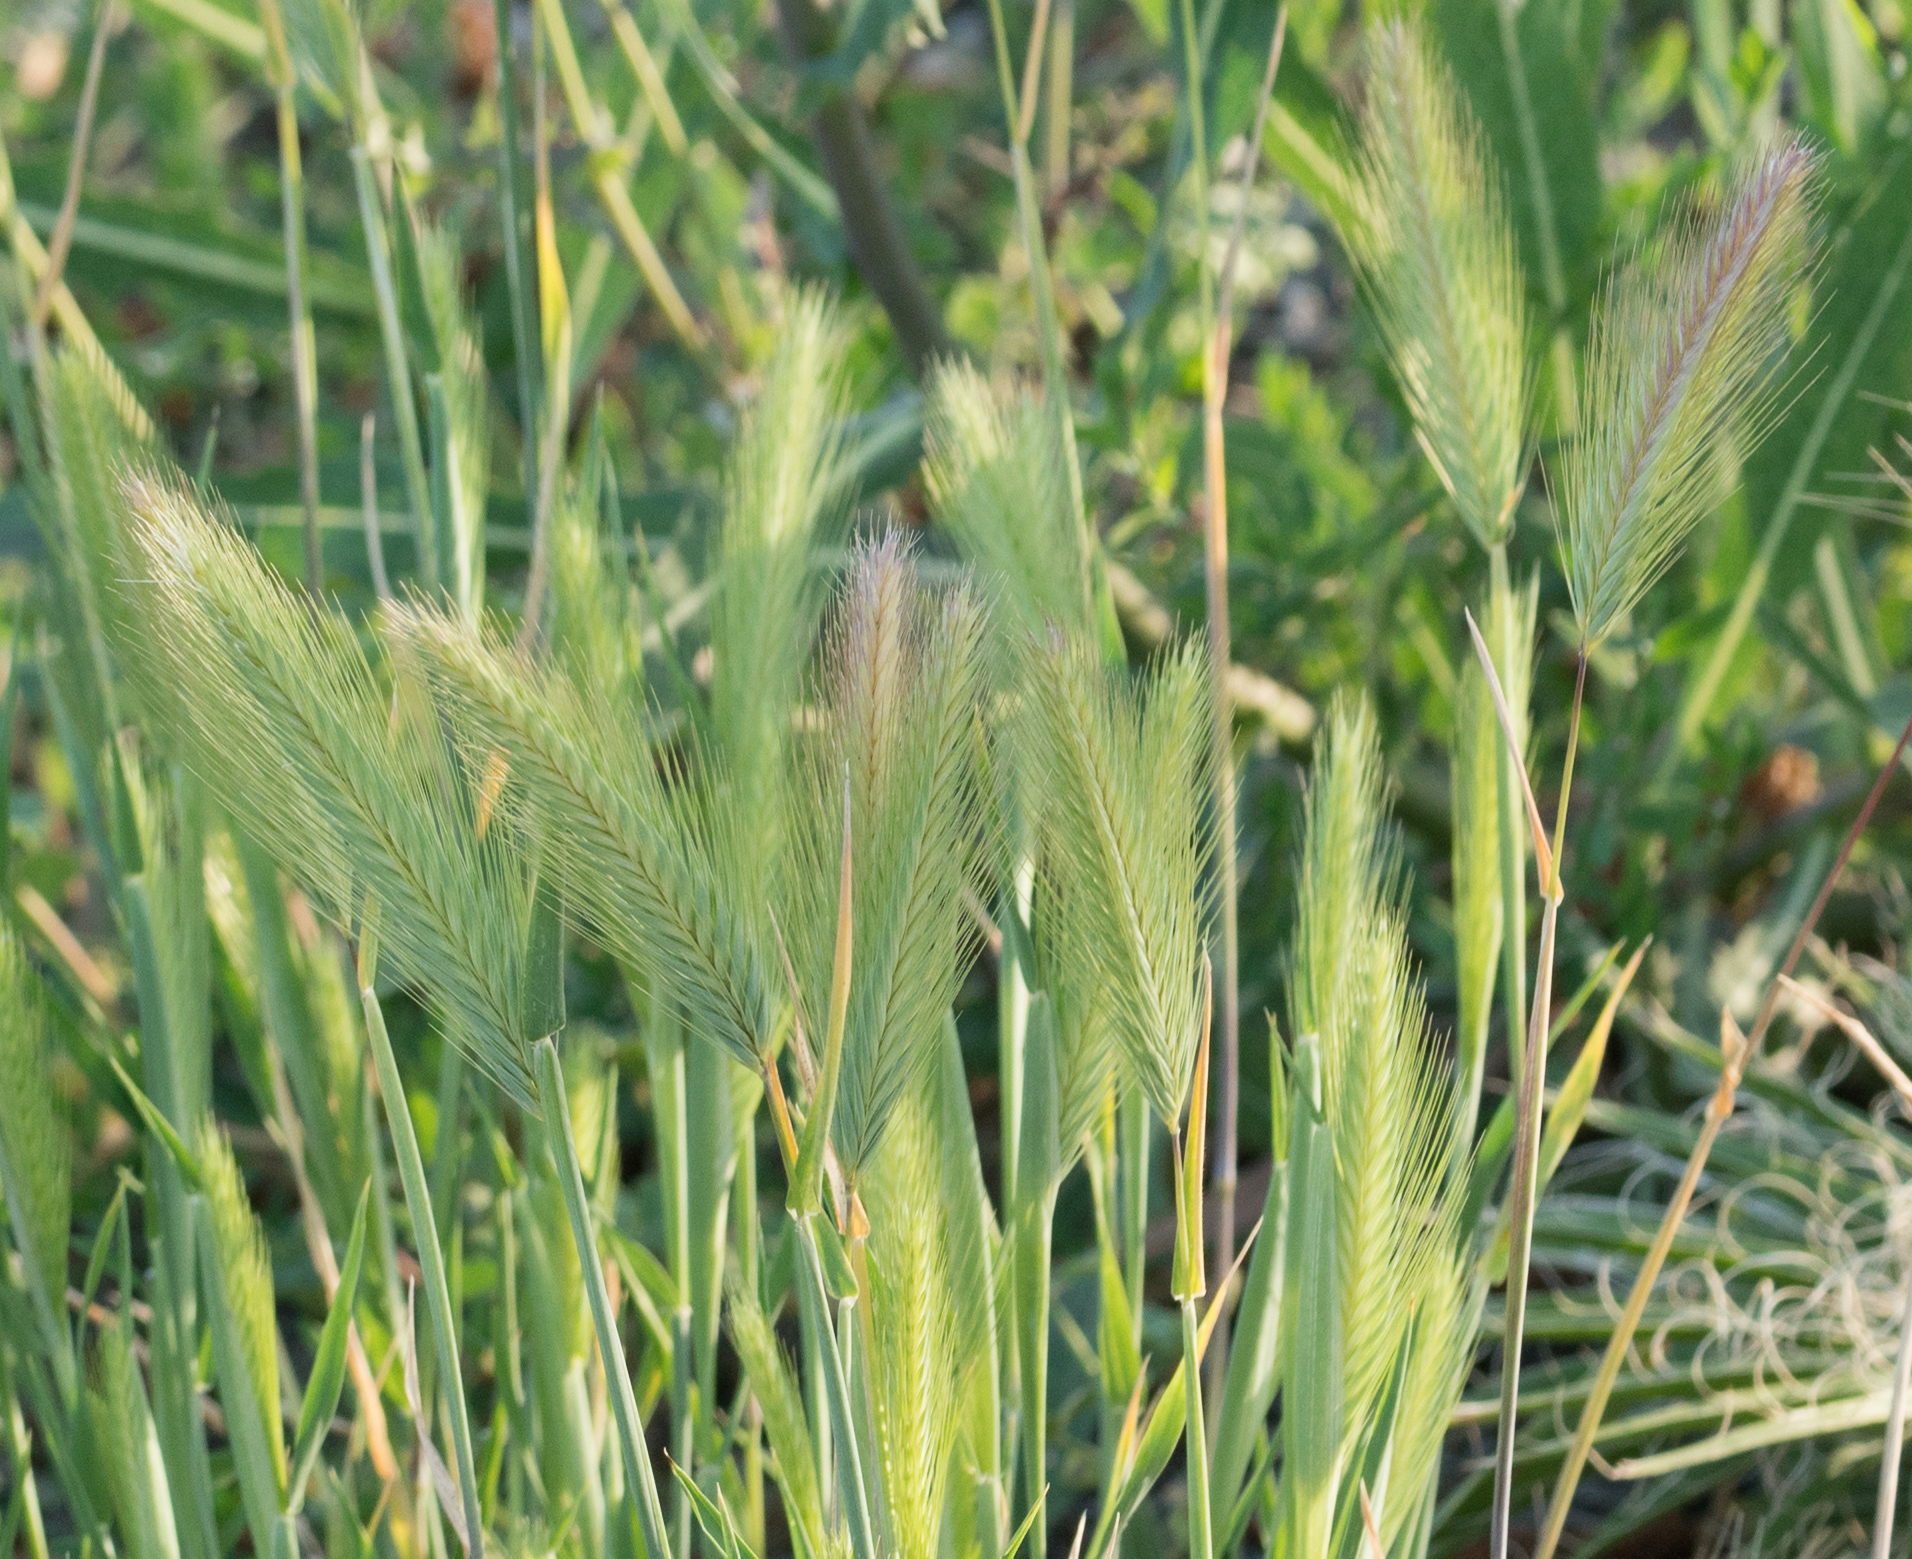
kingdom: Plantae
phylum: Tracheophyta
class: Liliopsida
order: Poales
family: Poaceae
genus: Hordeum
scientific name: Hordeum murinum
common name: Wall barley
